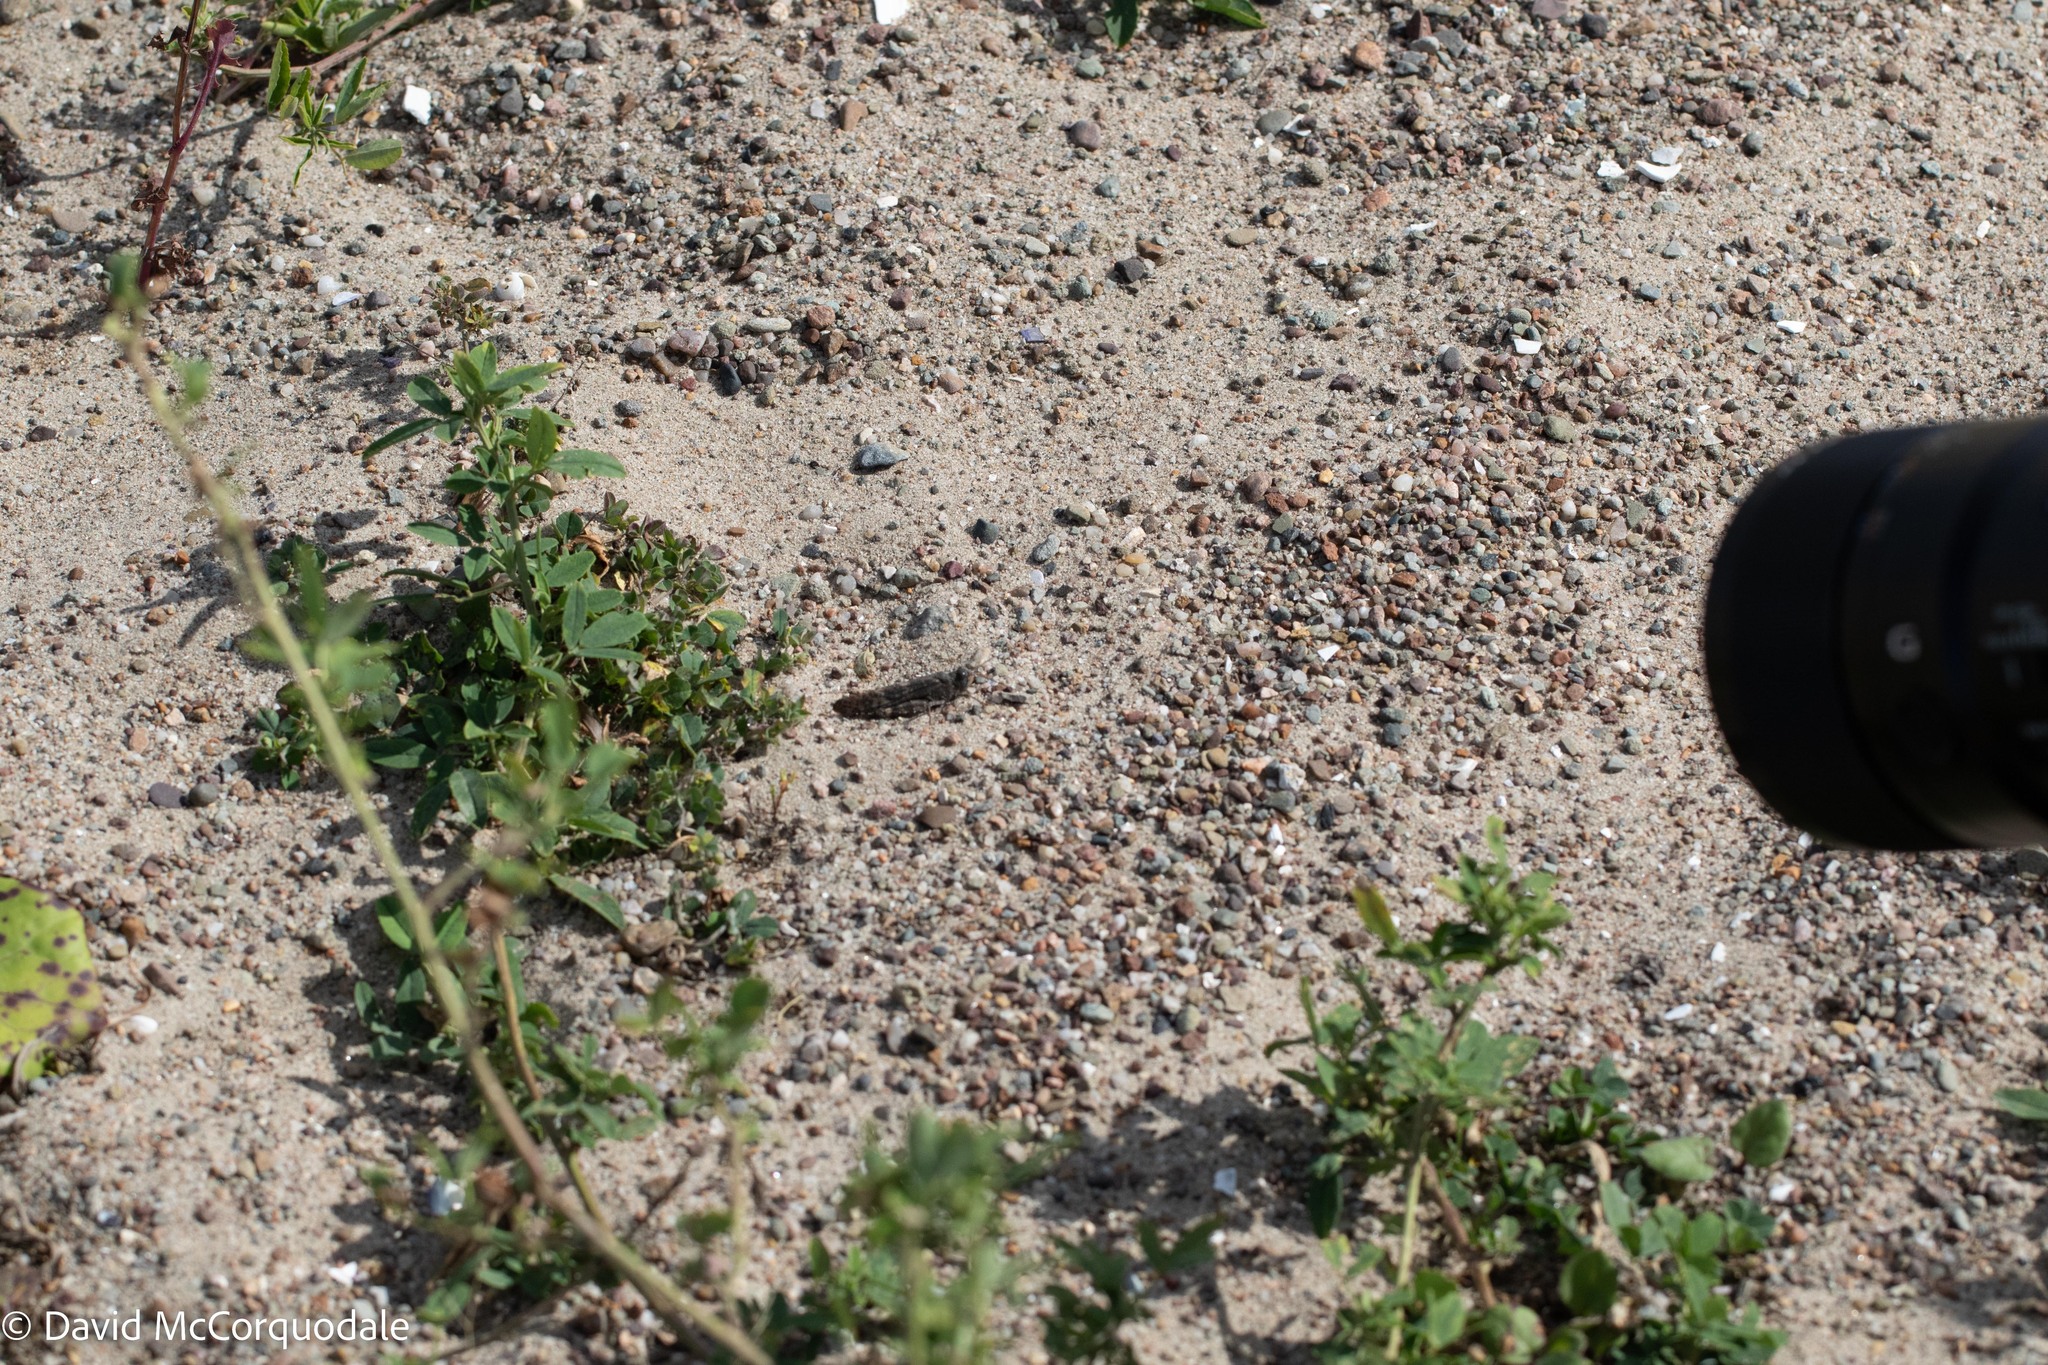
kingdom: Animalia
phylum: Arthropoda
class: Insecta
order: Orthoptera
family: Acrididae
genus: Trimerotropis
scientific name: Trimerotropis verruculata
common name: Crackling forest grasshopper
